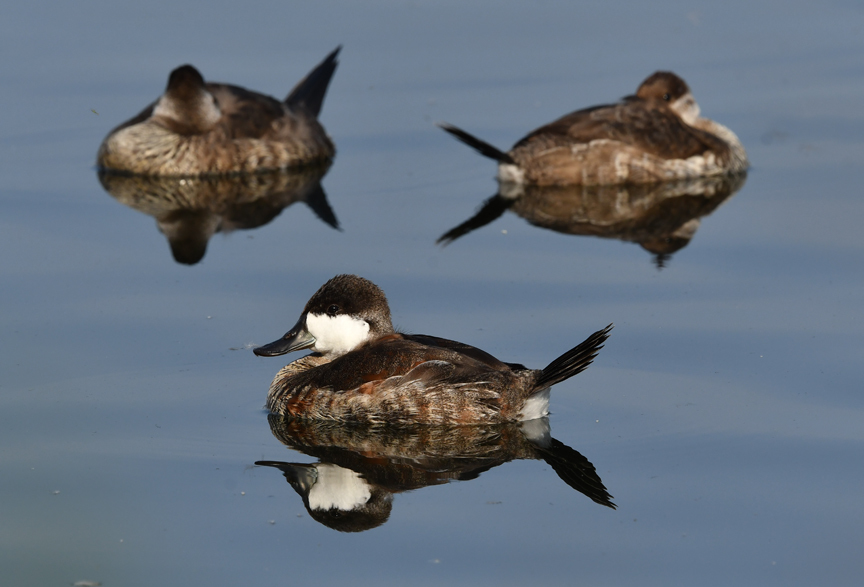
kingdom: Animalia
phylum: Chordata
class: Aves
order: Anseriformes
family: Anatidae
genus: Oxyura
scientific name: Oxyura jamaicensis
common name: Ruddy duck
